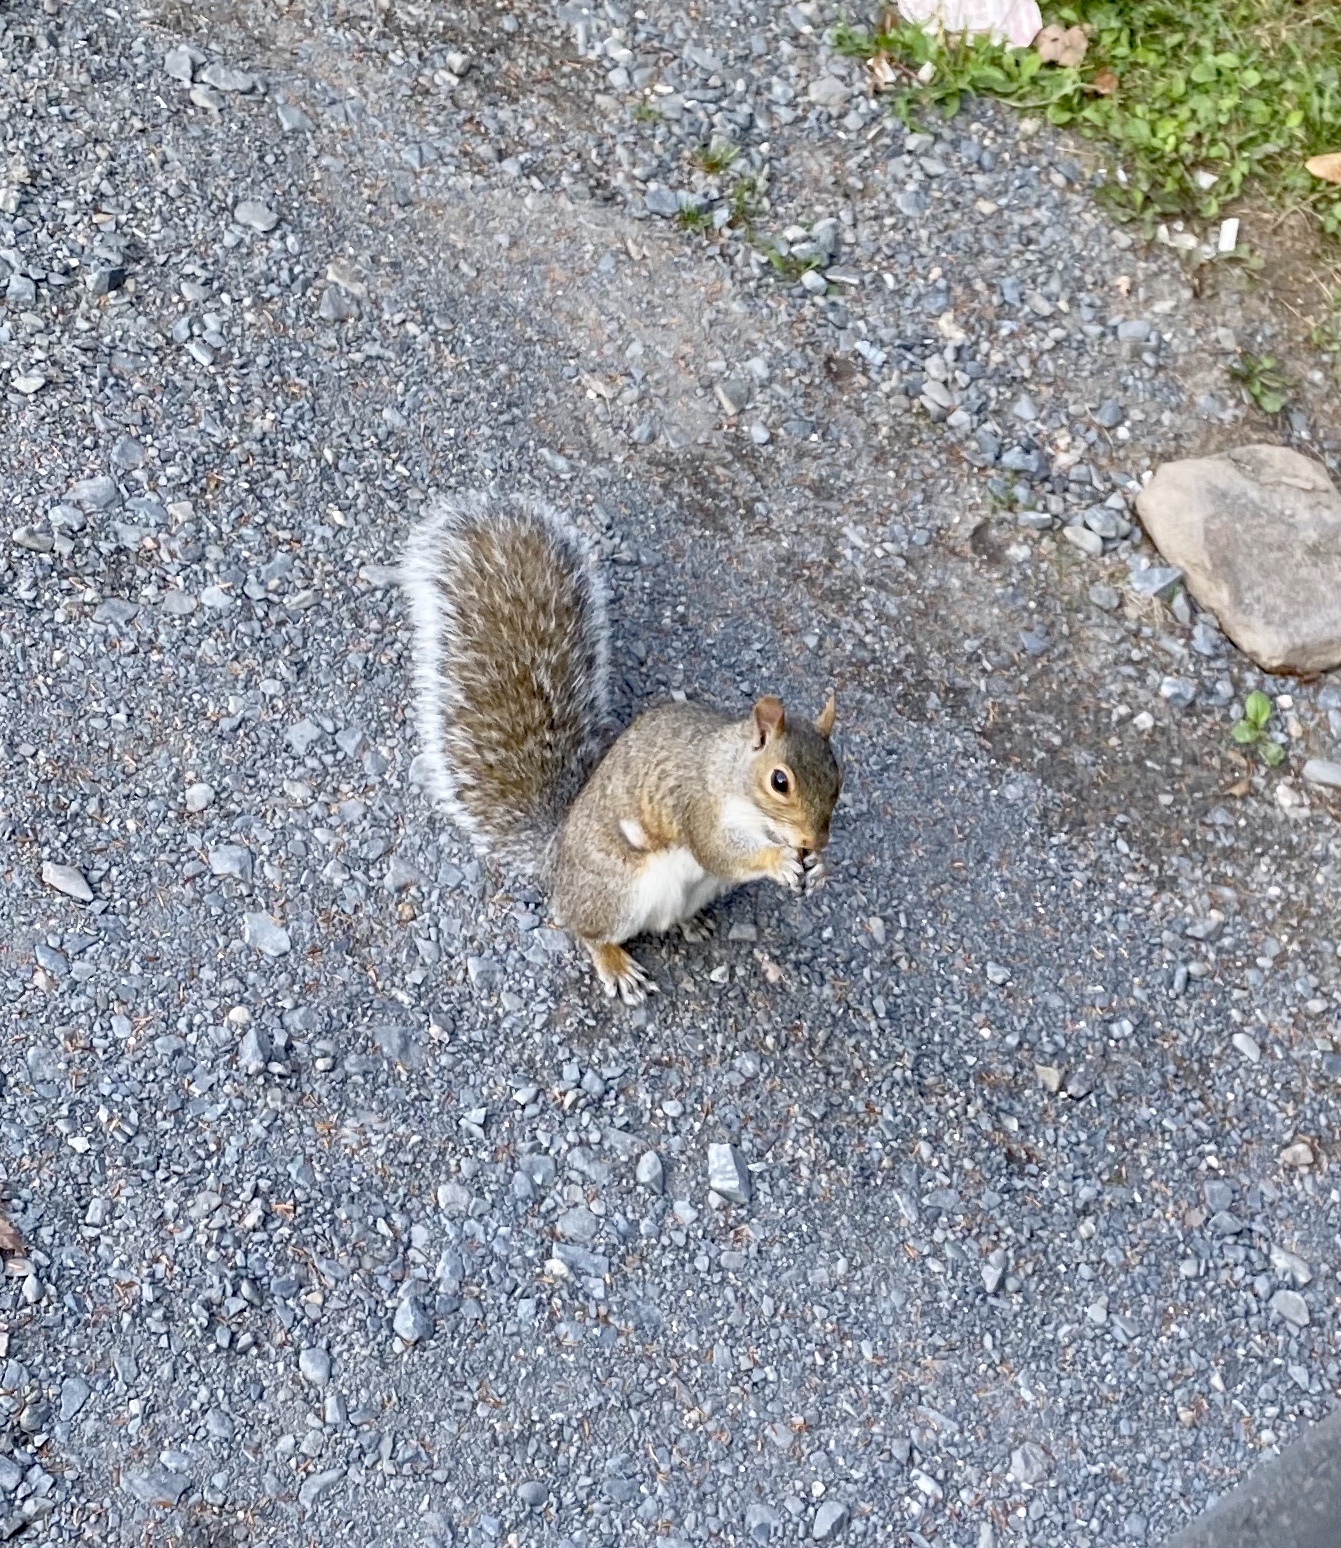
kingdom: Animalia
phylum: Chordata
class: Mammalia
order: Rodentia
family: Sciuridae
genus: Sciurus
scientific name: Sciurus carolinensis
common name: Eastern gray squirrel
